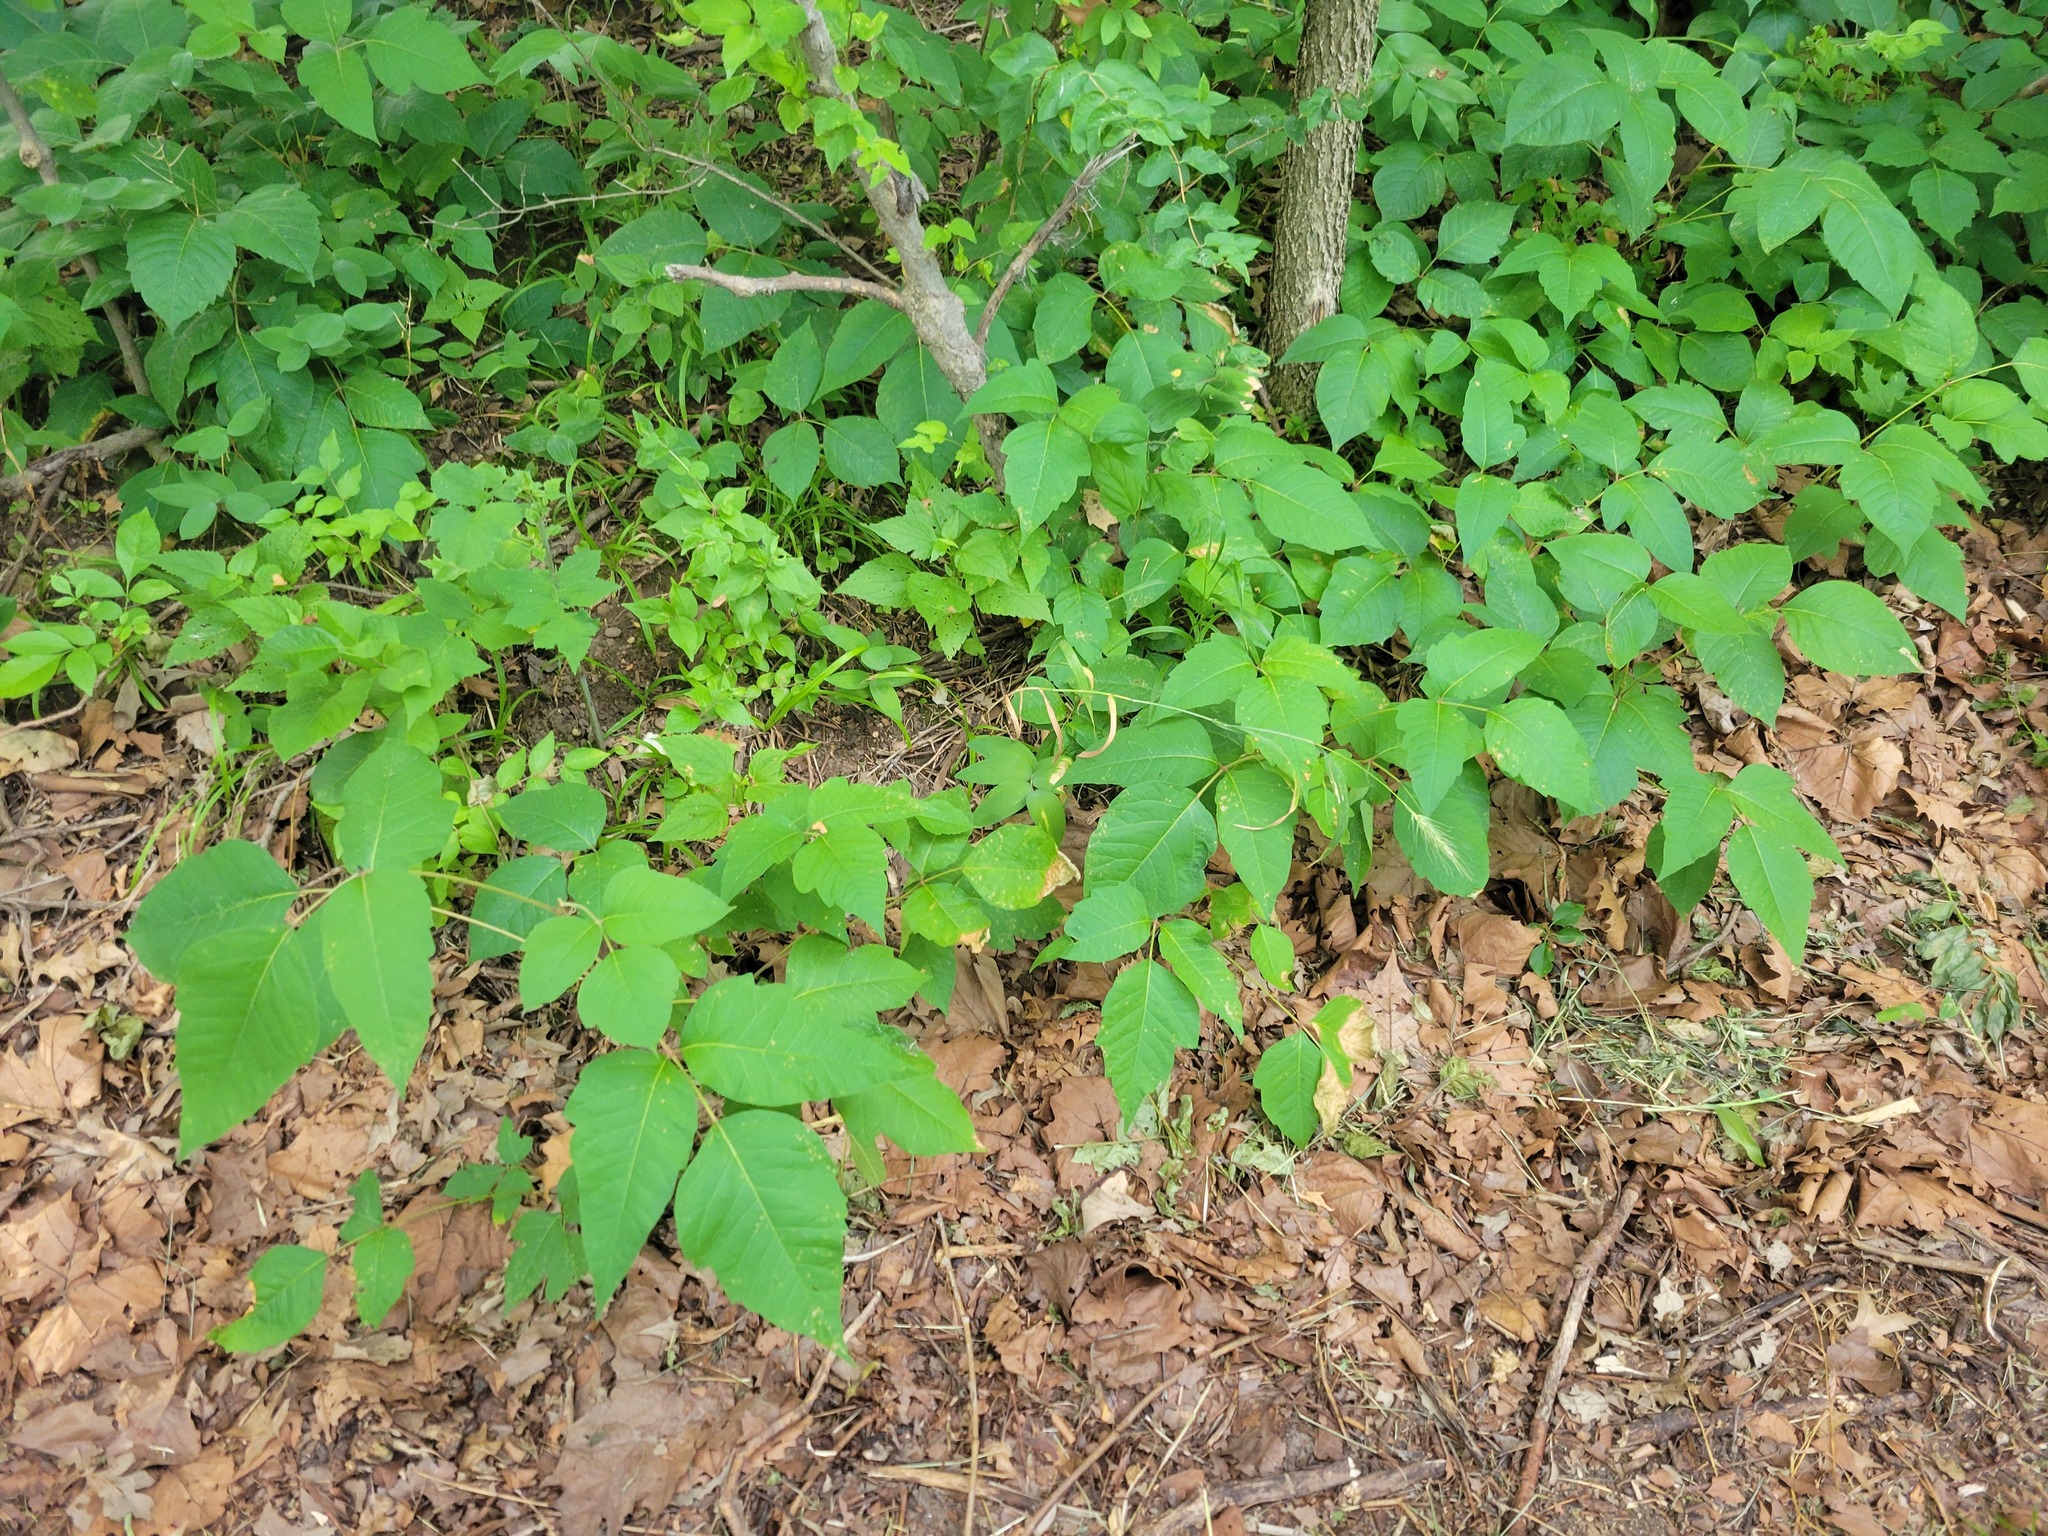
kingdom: Plantae
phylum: Tracheophyta
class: Magnoliopsida
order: Sapindales
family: Anacardiaceae
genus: Toxicodendron
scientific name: Toxicodendron radicans
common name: Poison ivy
